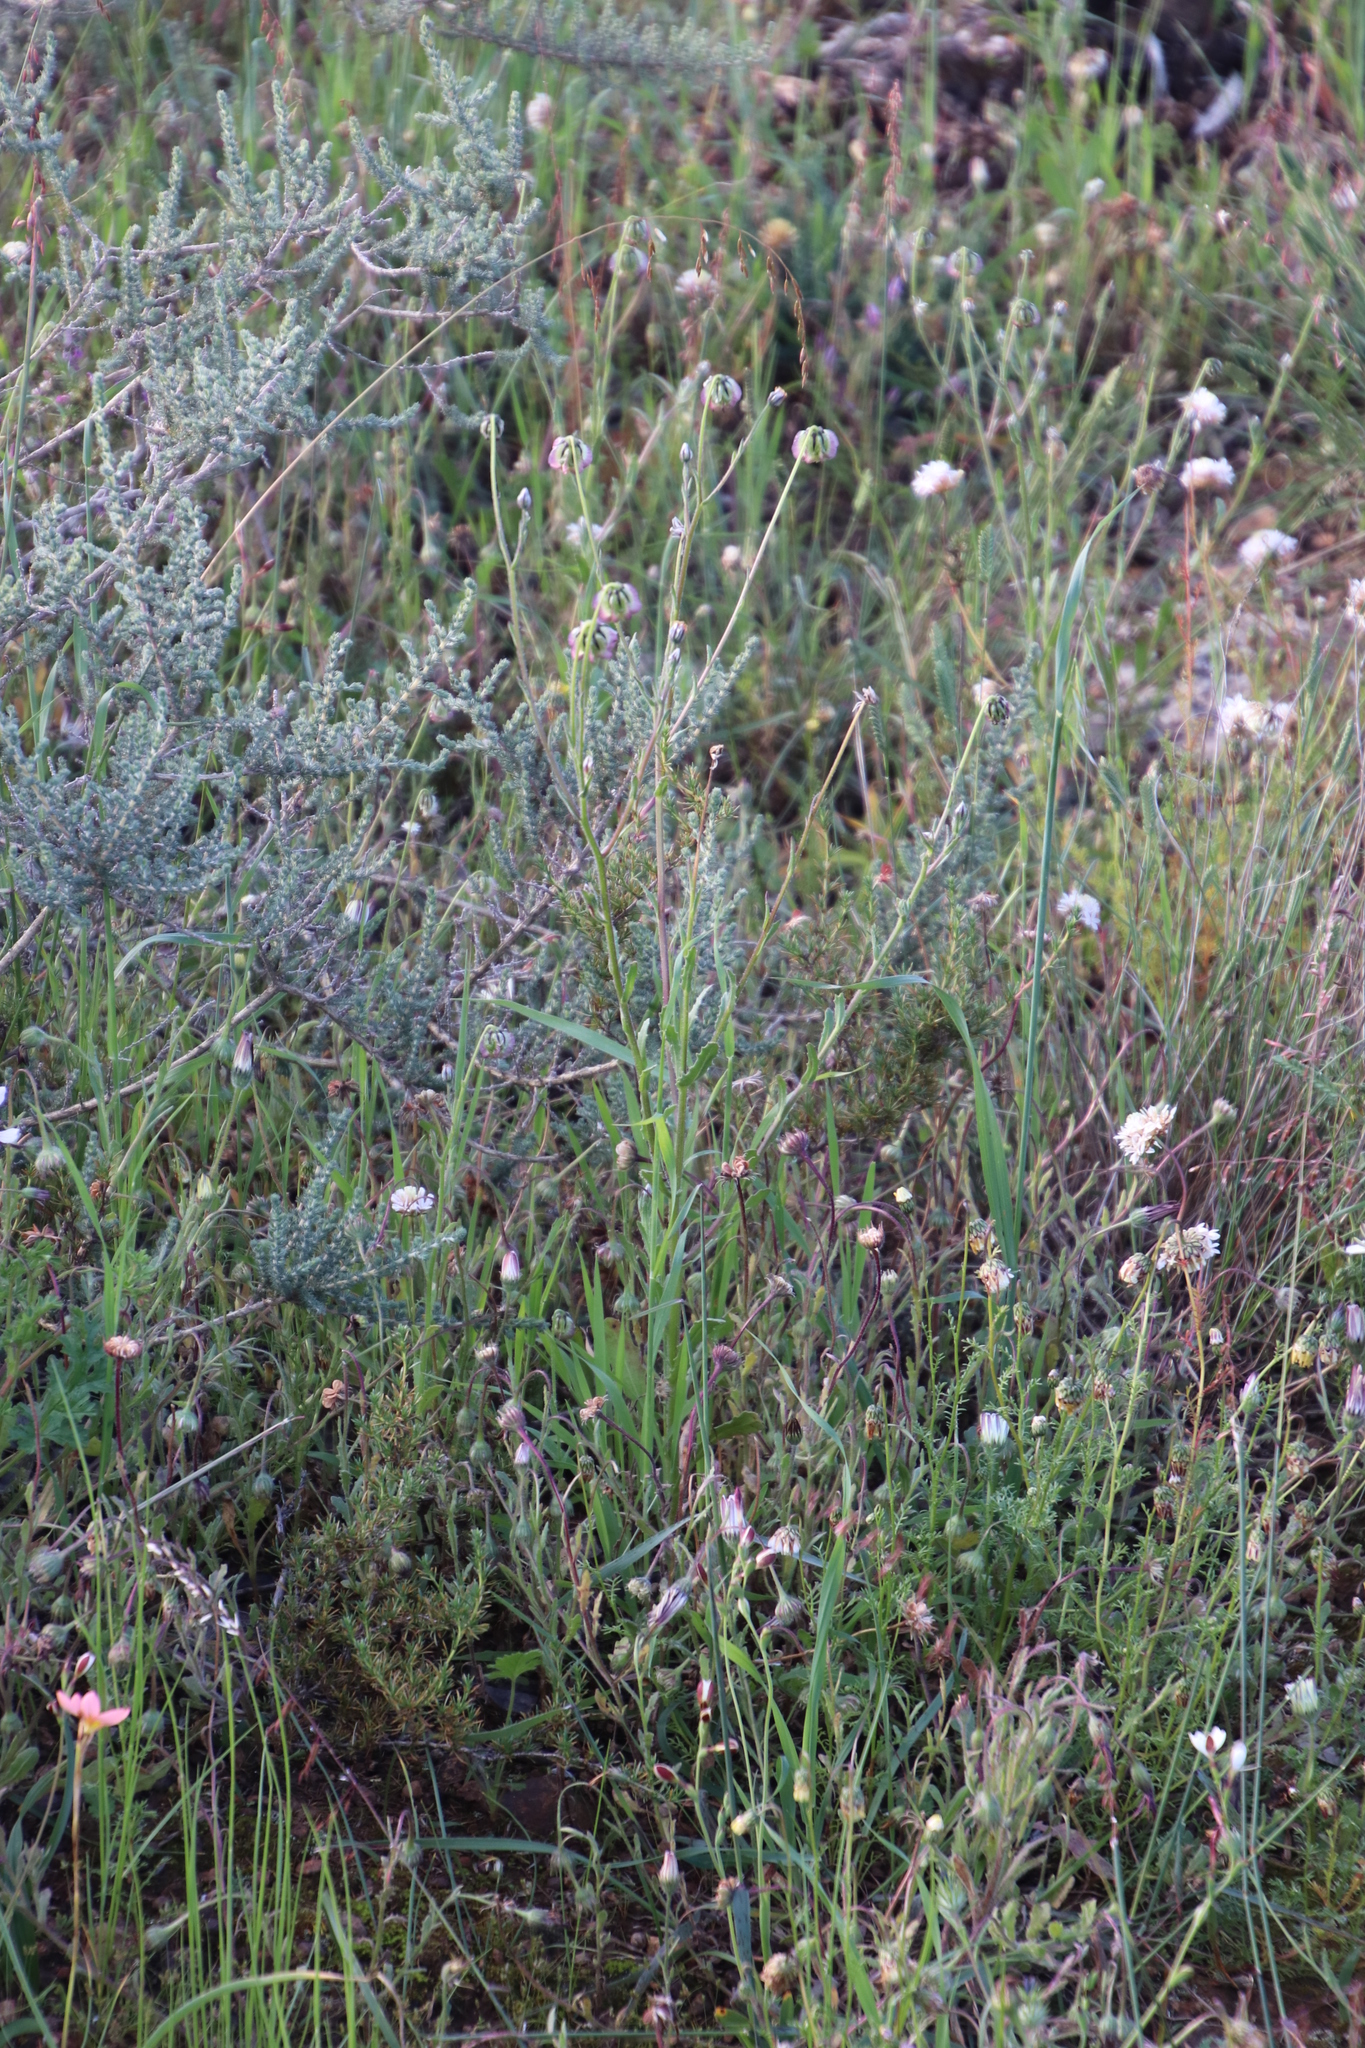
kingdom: Plantae
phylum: Tracheophyta
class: Magnoliopsida
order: Asterales
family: Asteraceae
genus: Osteospermum
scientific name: Osteospermum monstrosum
